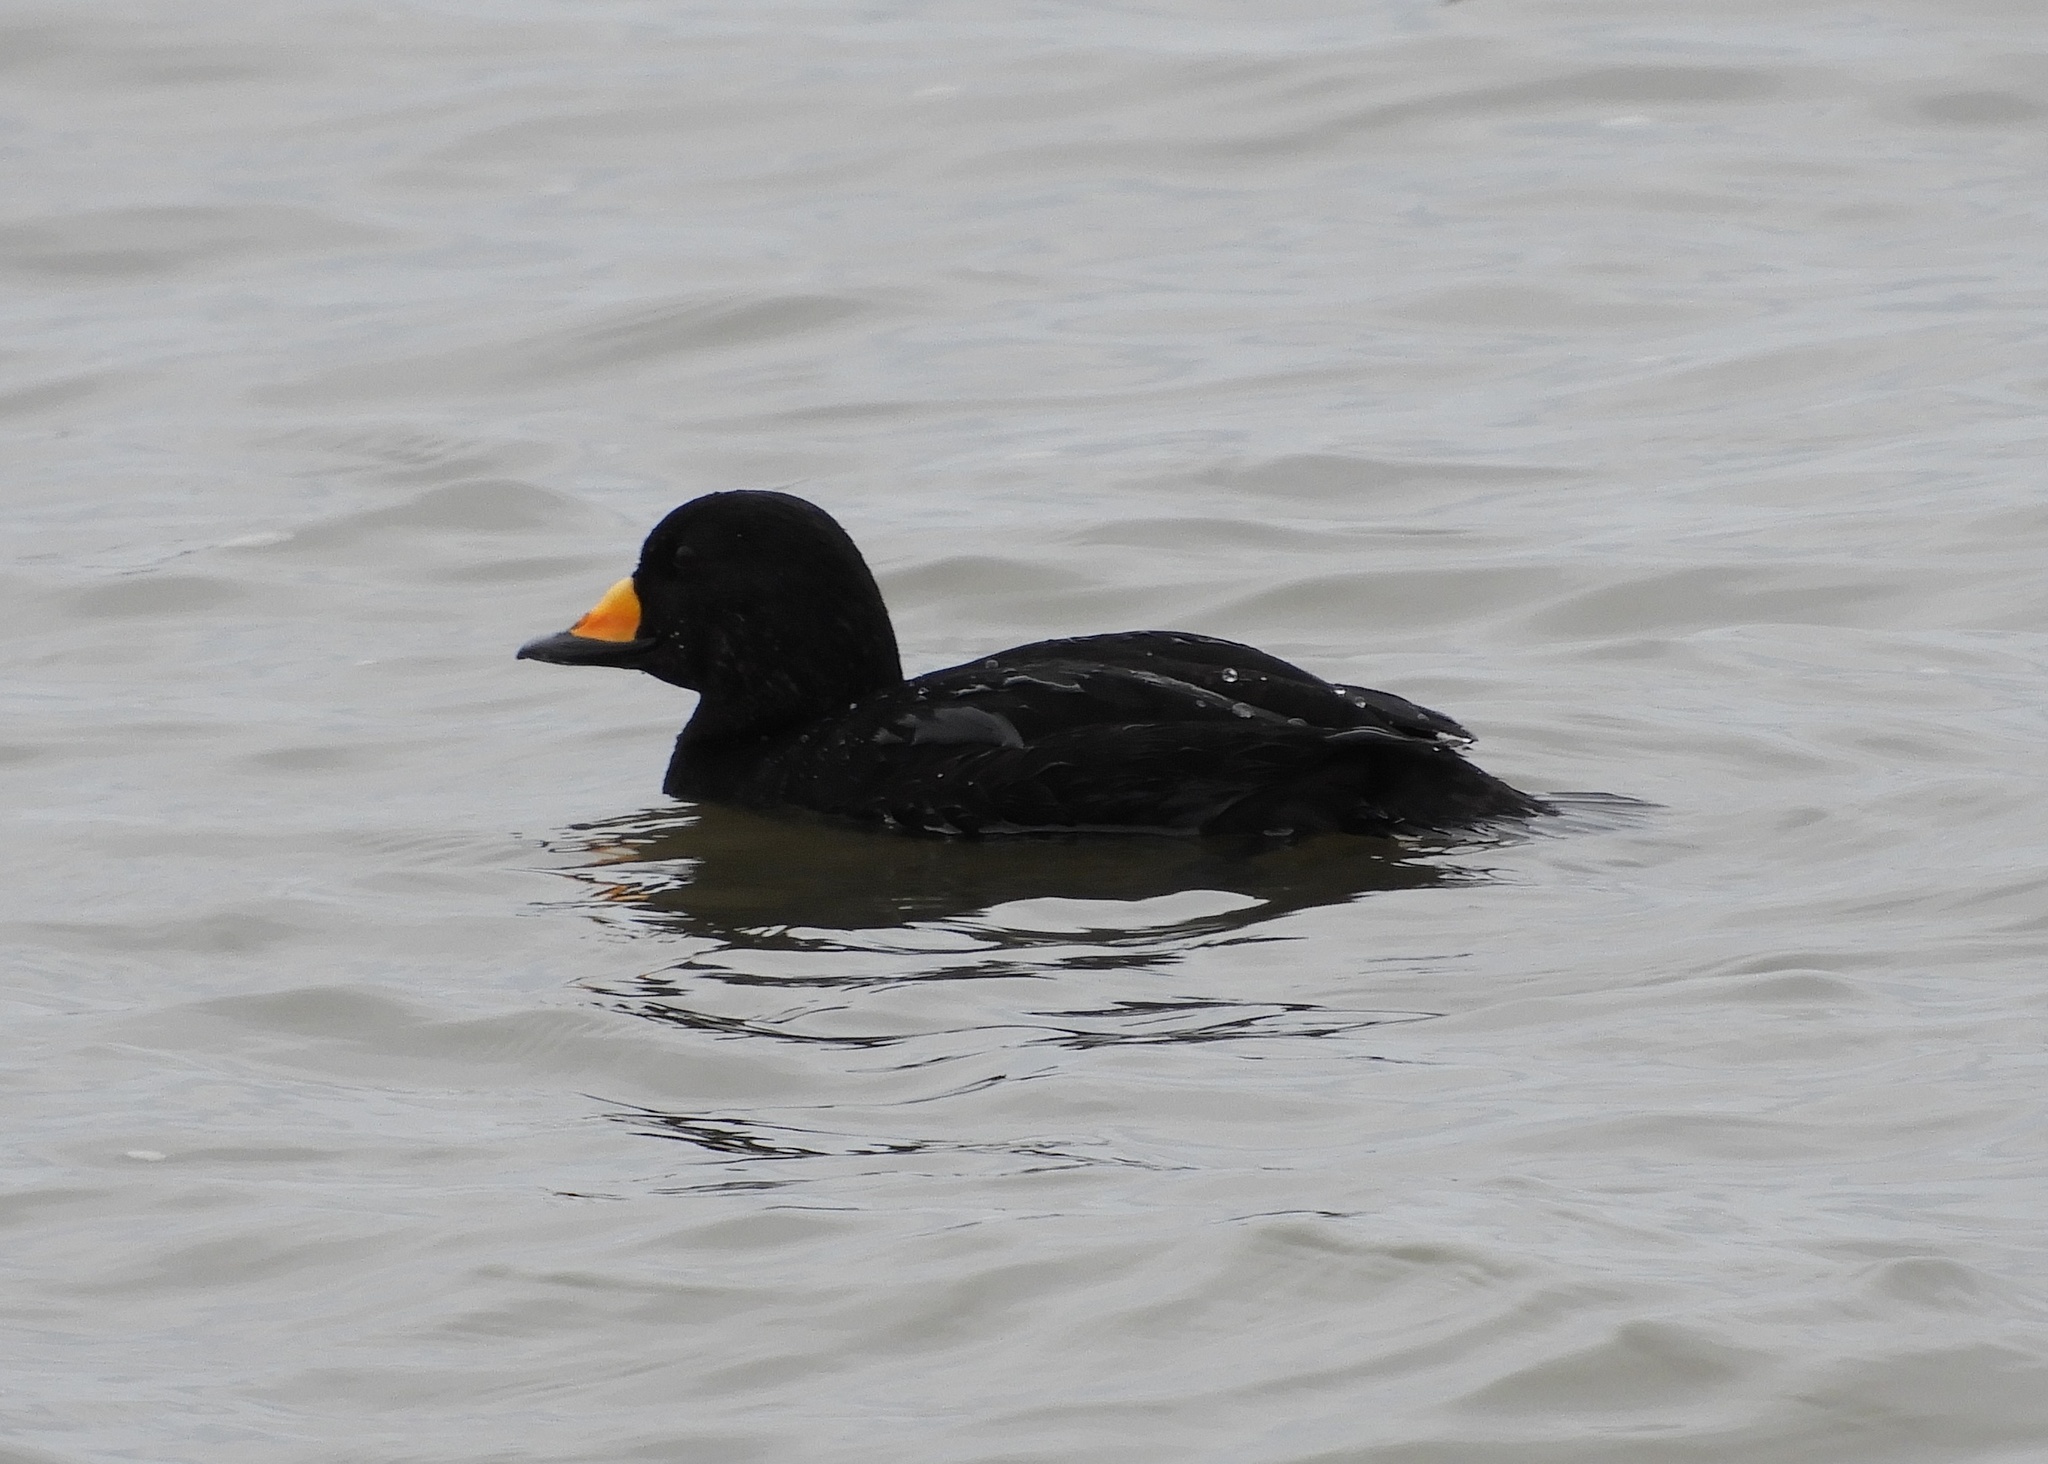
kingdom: Animalia
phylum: Chordata
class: Aves
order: Anseriformes
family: Anatidae
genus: Melanitta
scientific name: Melanitta americana
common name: Black scoter
